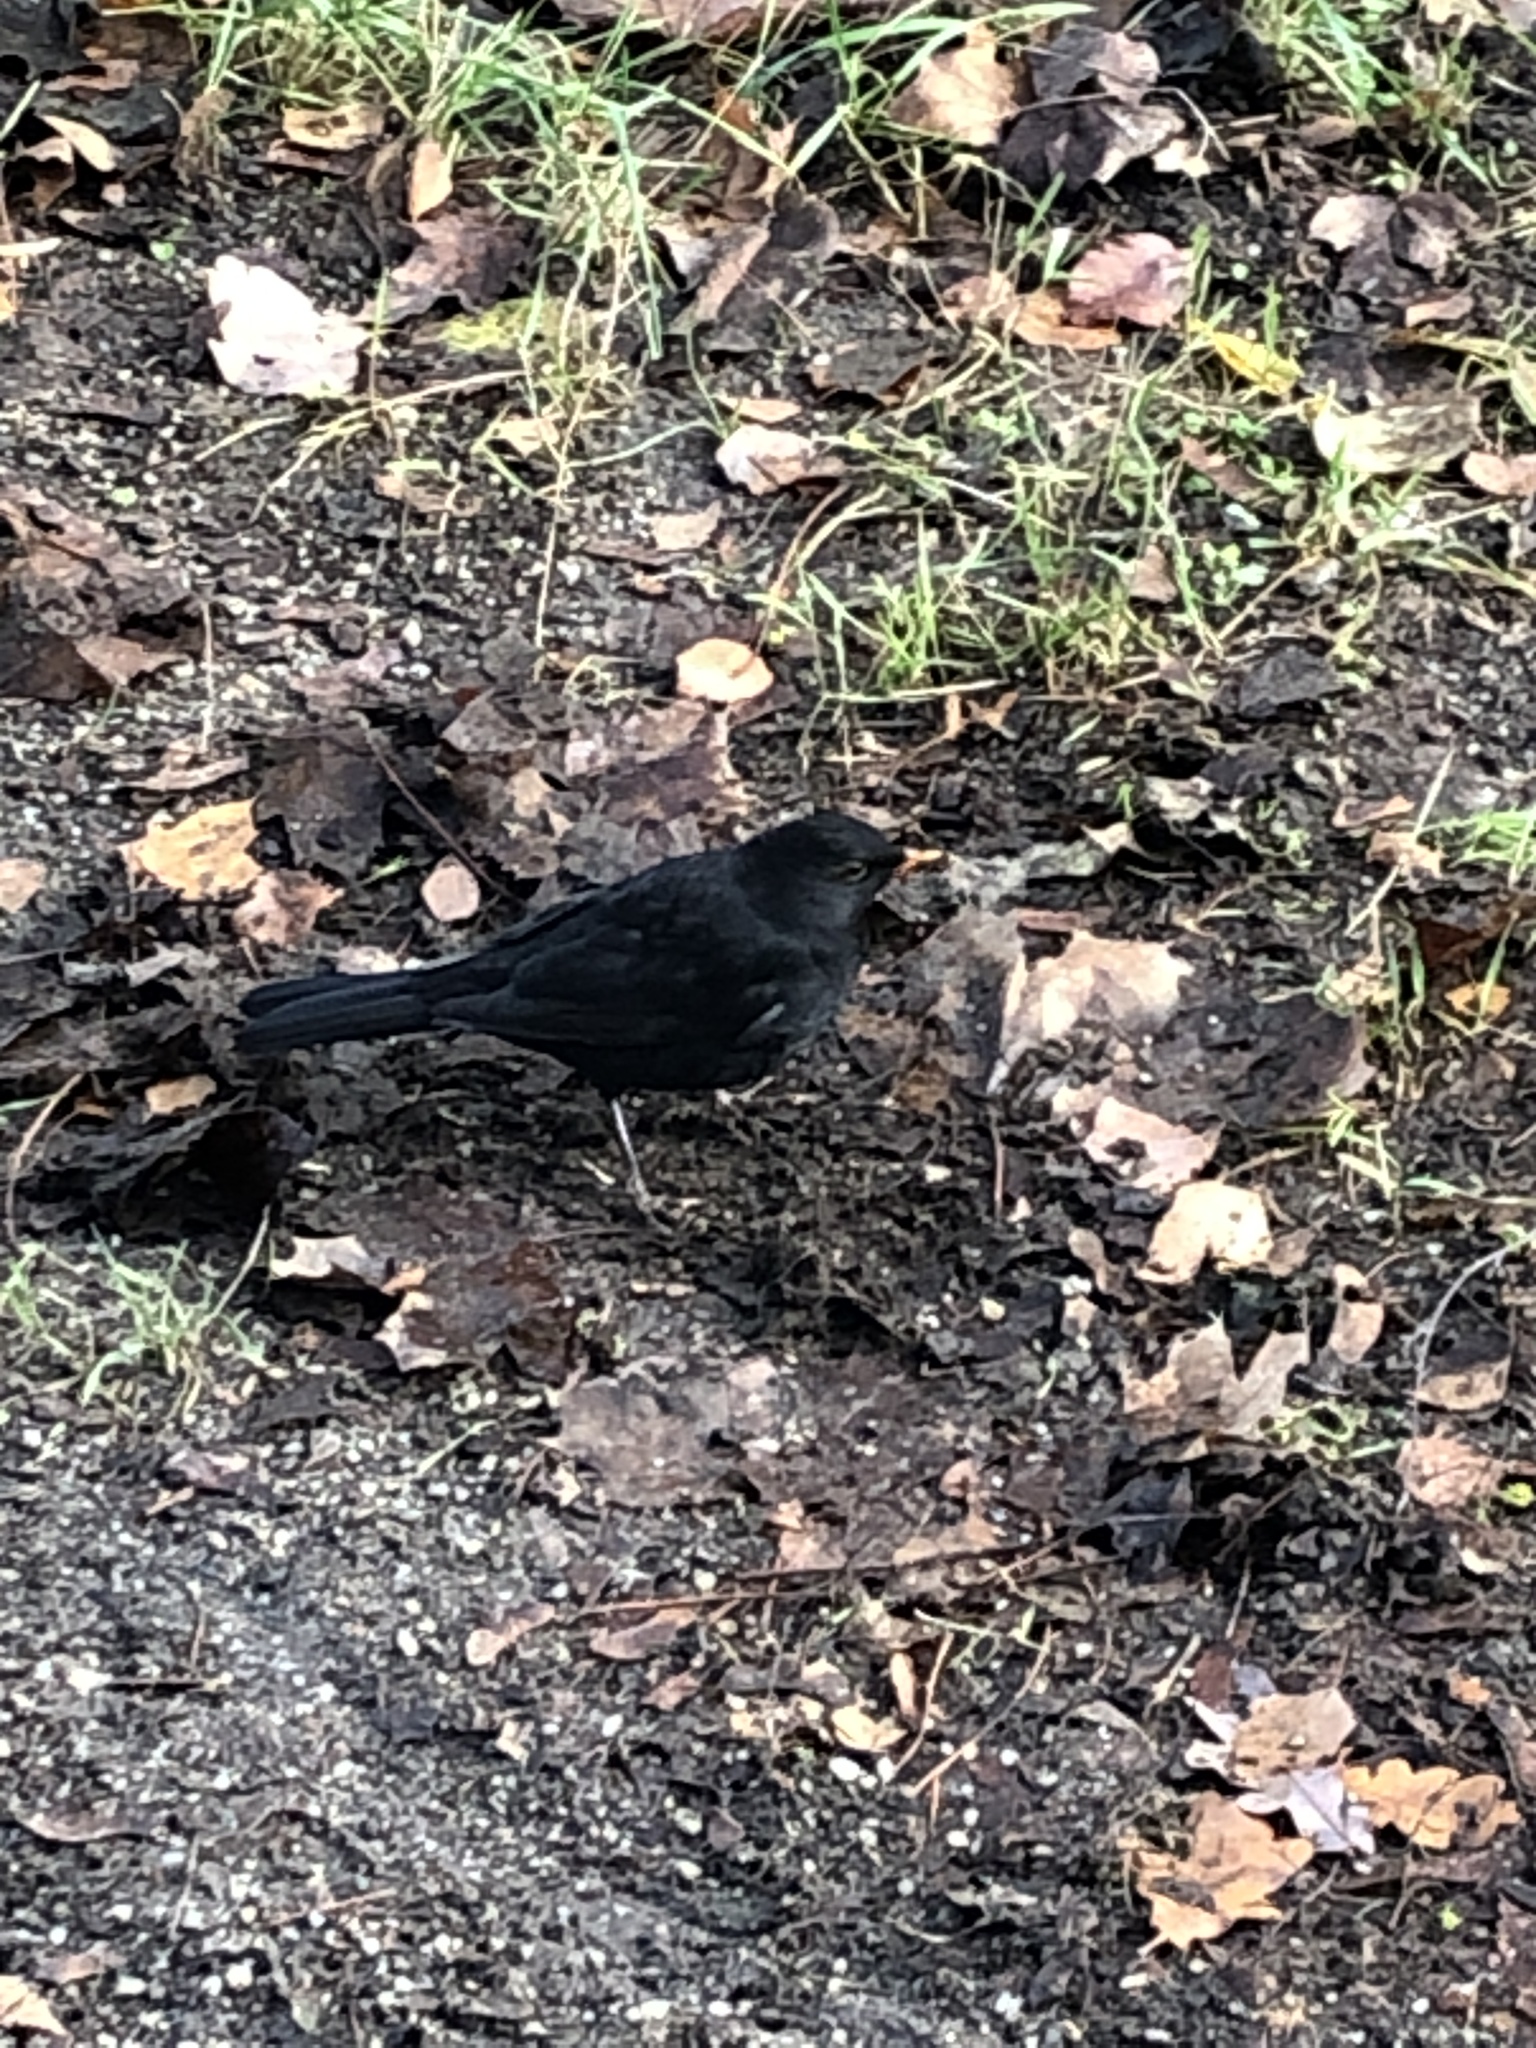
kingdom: Animalia
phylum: Chordata
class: Aves
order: Passeriformes
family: Turdidae
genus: Turdus
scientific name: Turdus merula
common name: Common blackbird
